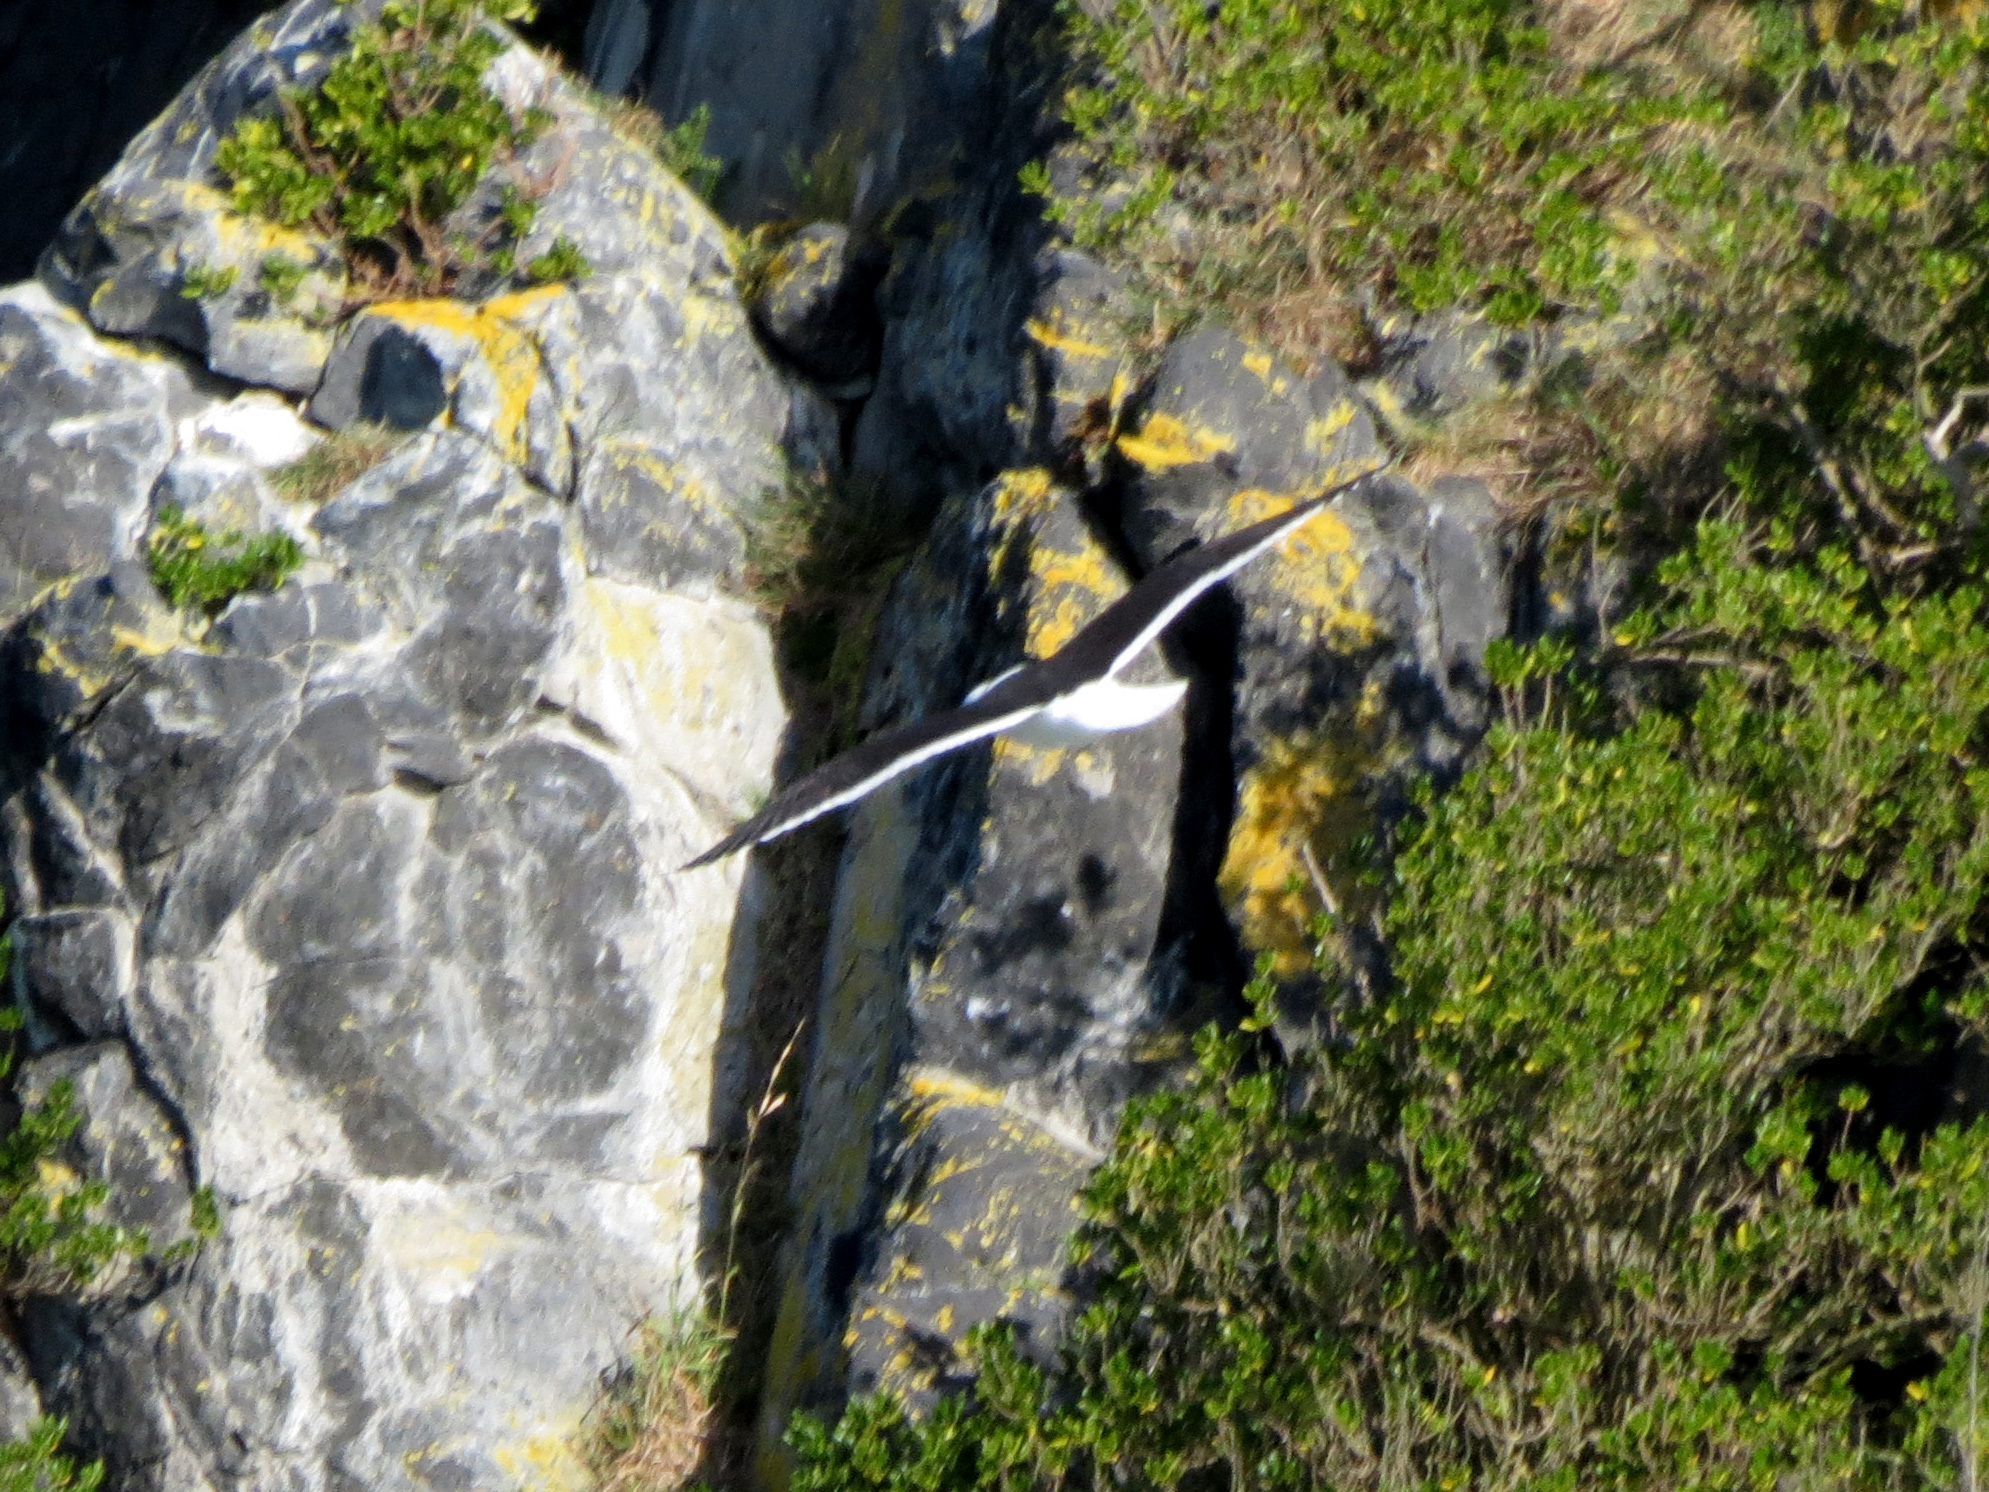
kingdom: Animalia
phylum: Chordata
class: Aves
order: Procellariiformes
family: Diomedeidae
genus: Diomedea
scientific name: Diomedea sanfordi
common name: Northern royal albatross
